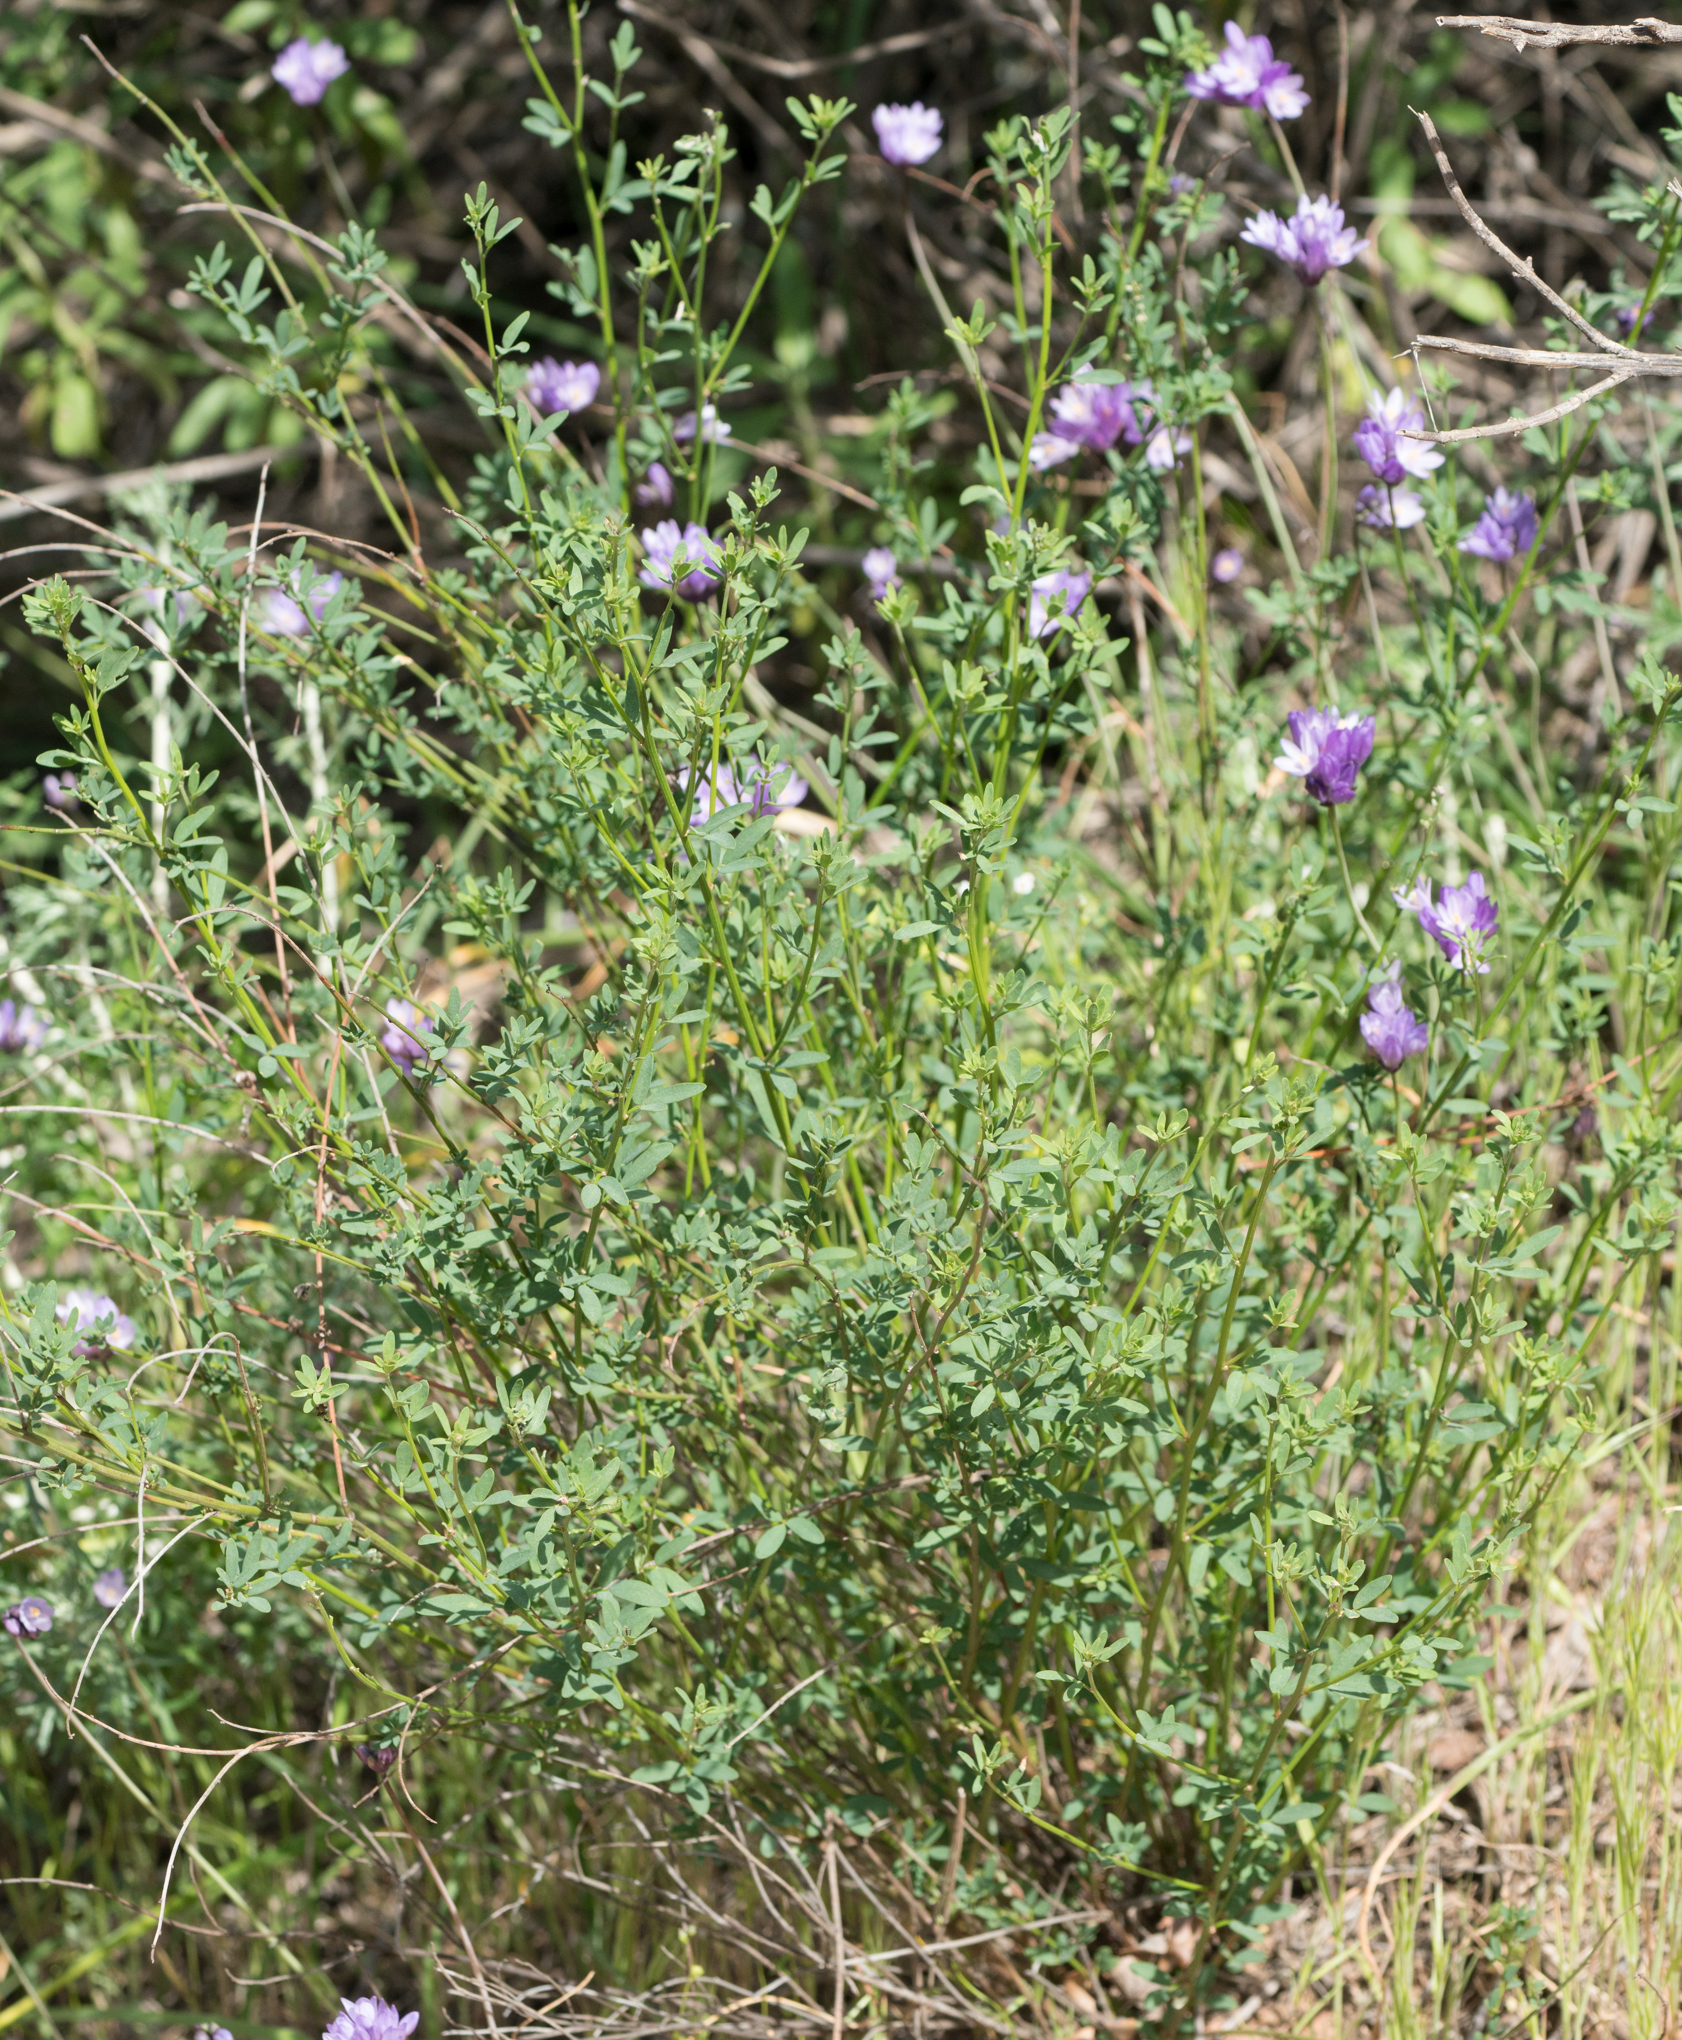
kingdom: Plantae
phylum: Tracheophyta
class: Magnoliopsida
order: Fabales
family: Fabaceae
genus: Acmispon
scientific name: Acmispon glaber
